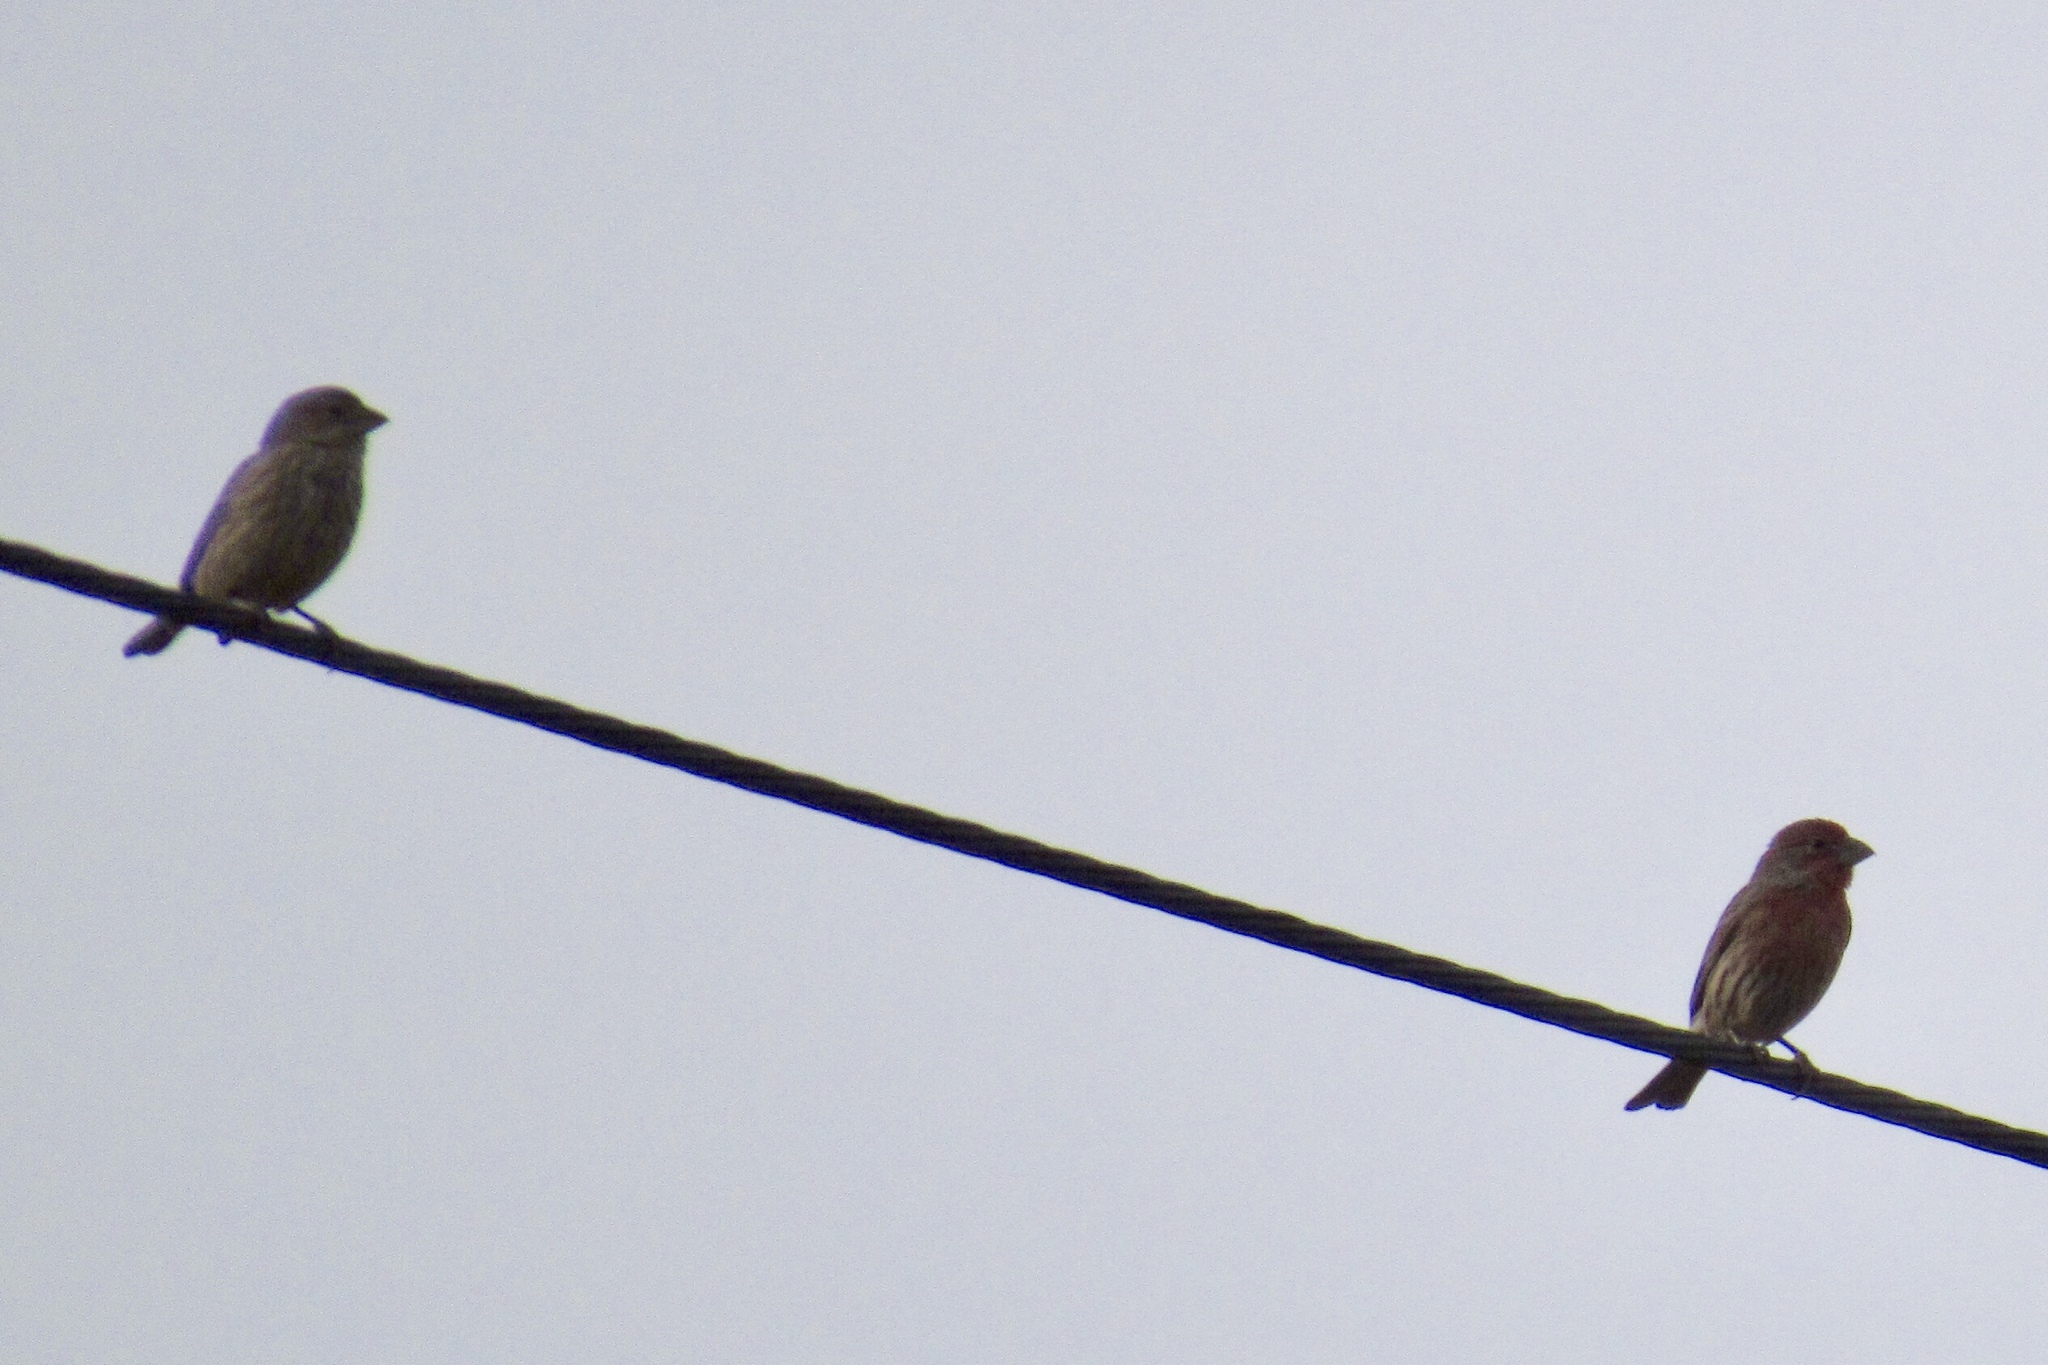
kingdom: Animalia
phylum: Chordata
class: Aves
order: Passeriformes
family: Fringillidae
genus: Haemorhous
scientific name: Haemorhous mexicanus
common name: House finch
